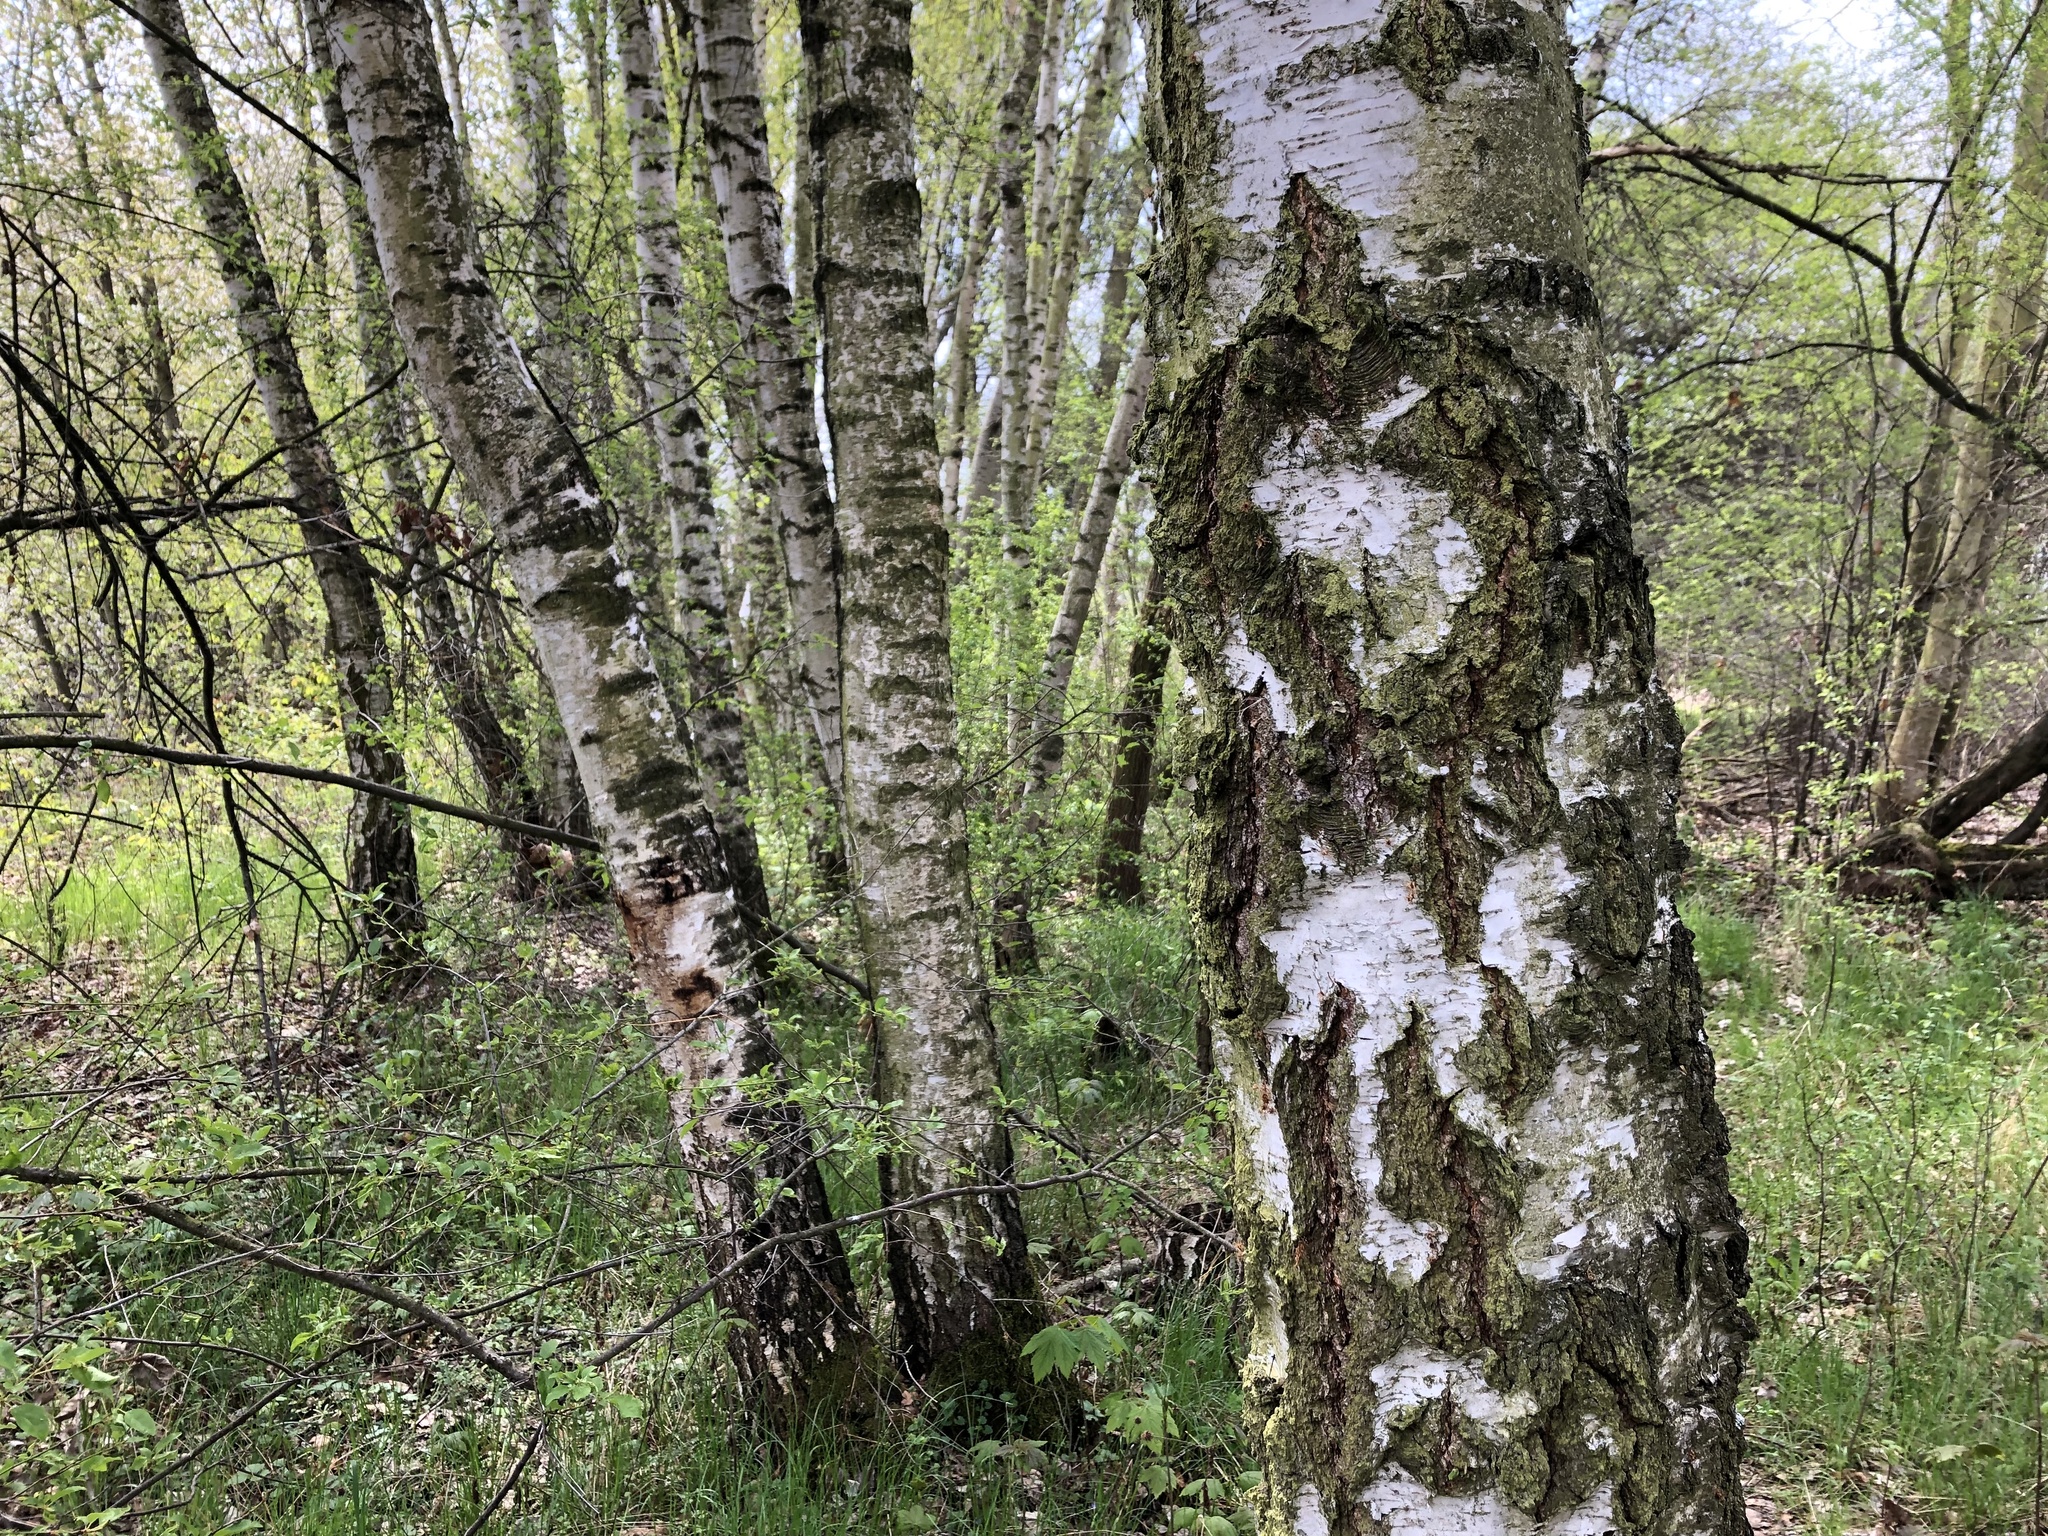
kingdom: Plantae
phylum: Tracheophyta
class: Magnoliopsida
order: Fagales
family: Betulaceae
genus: Betula
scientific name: Betula pendula
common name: Silver birch
